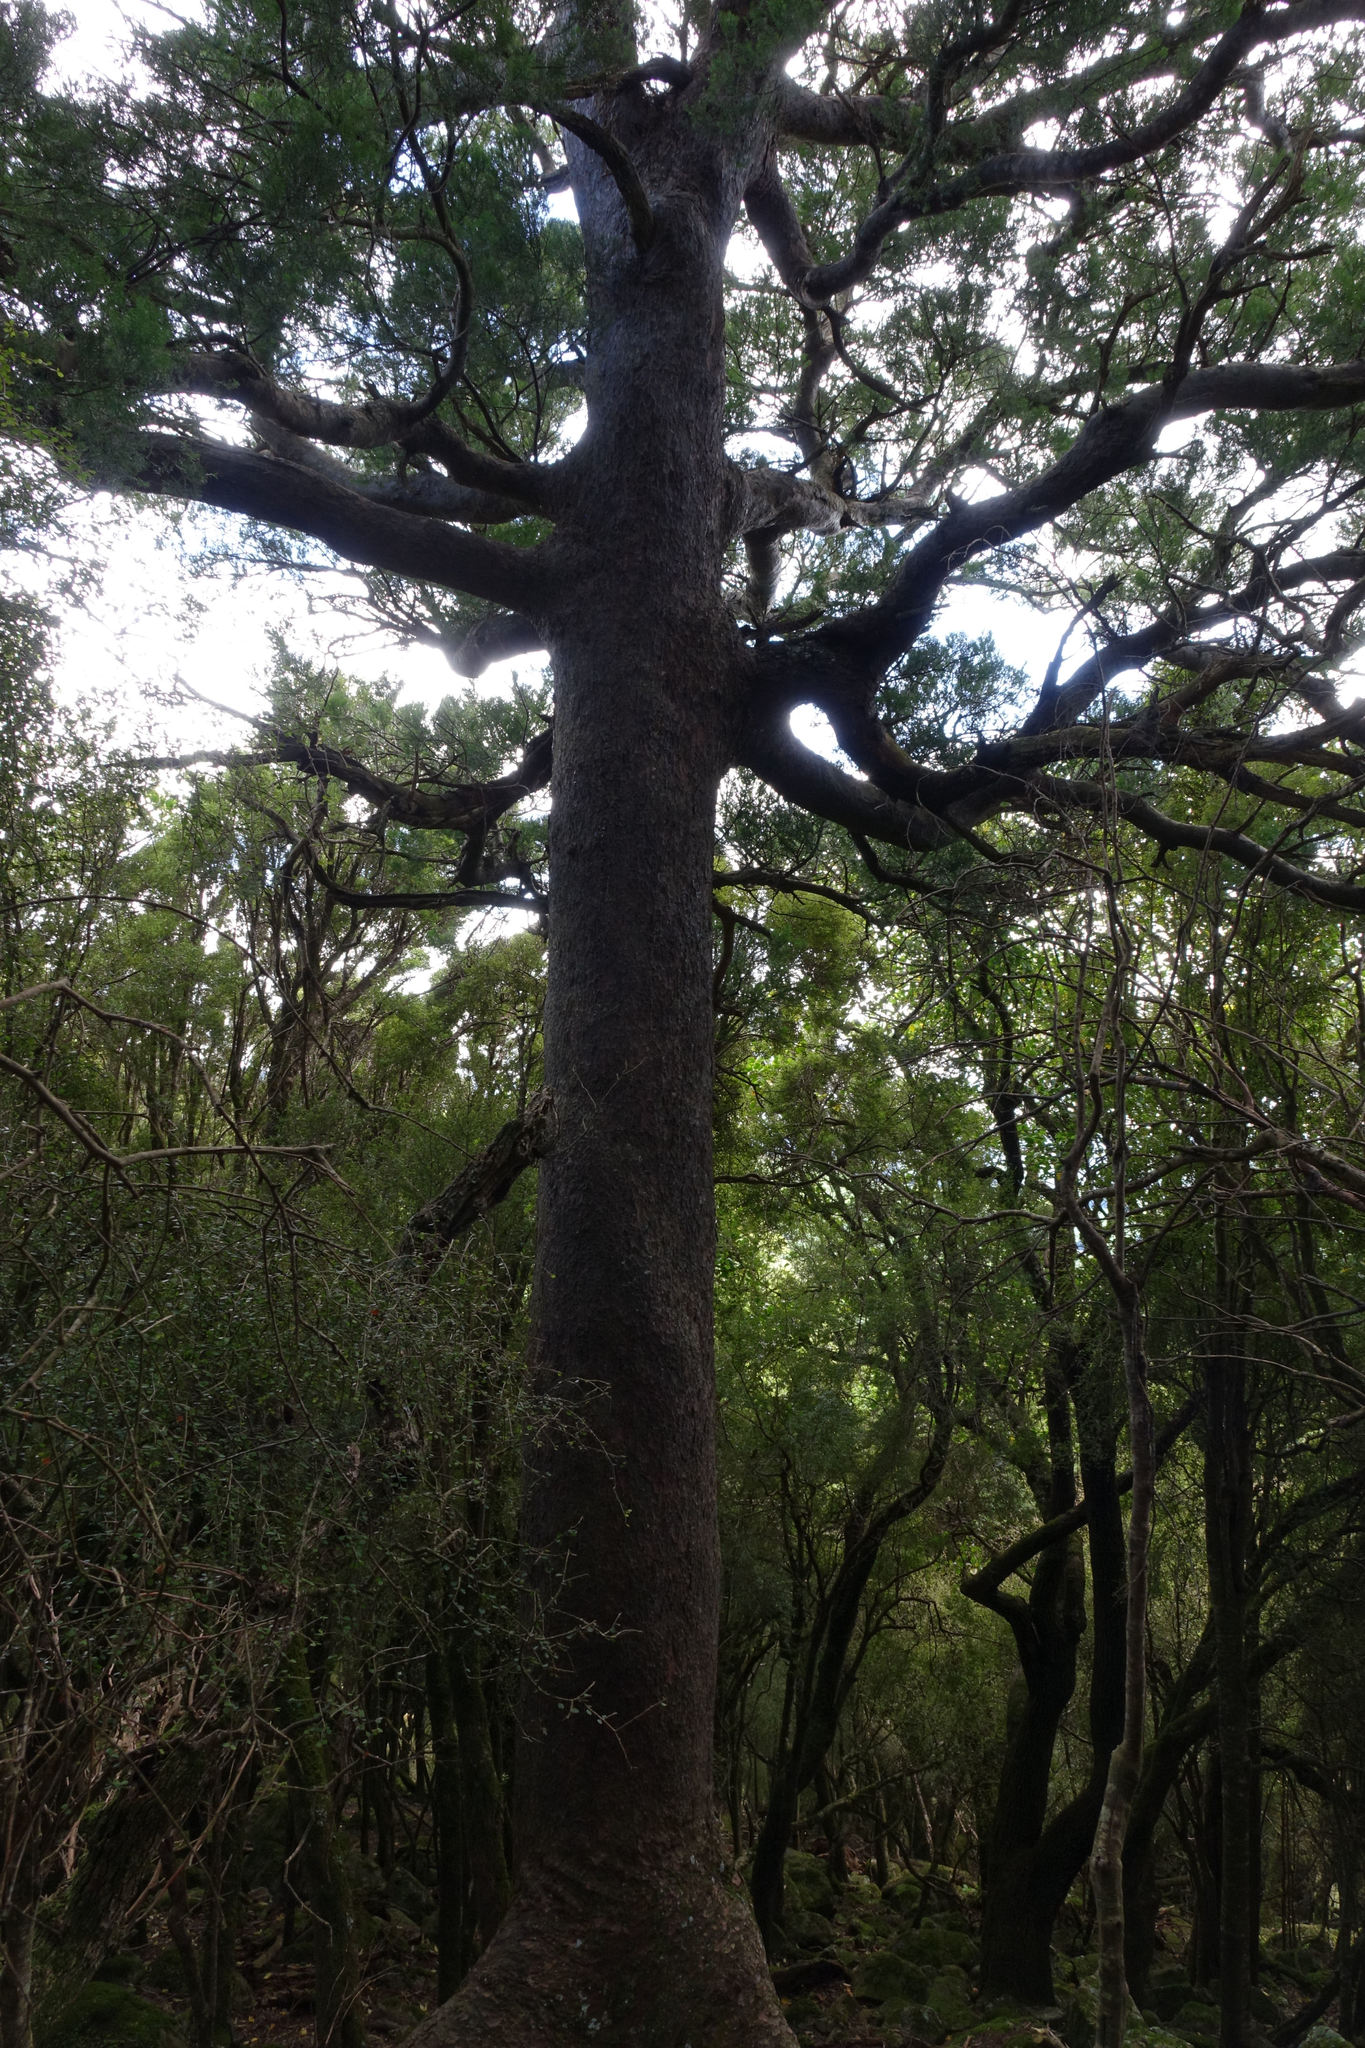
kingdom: Plantae
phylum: Tracheophyta
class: Pinopsida
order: Pinales
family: Podocarpaceae
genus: Prumnopitys
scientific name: Prumnopitys taxifolia
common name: Matai
